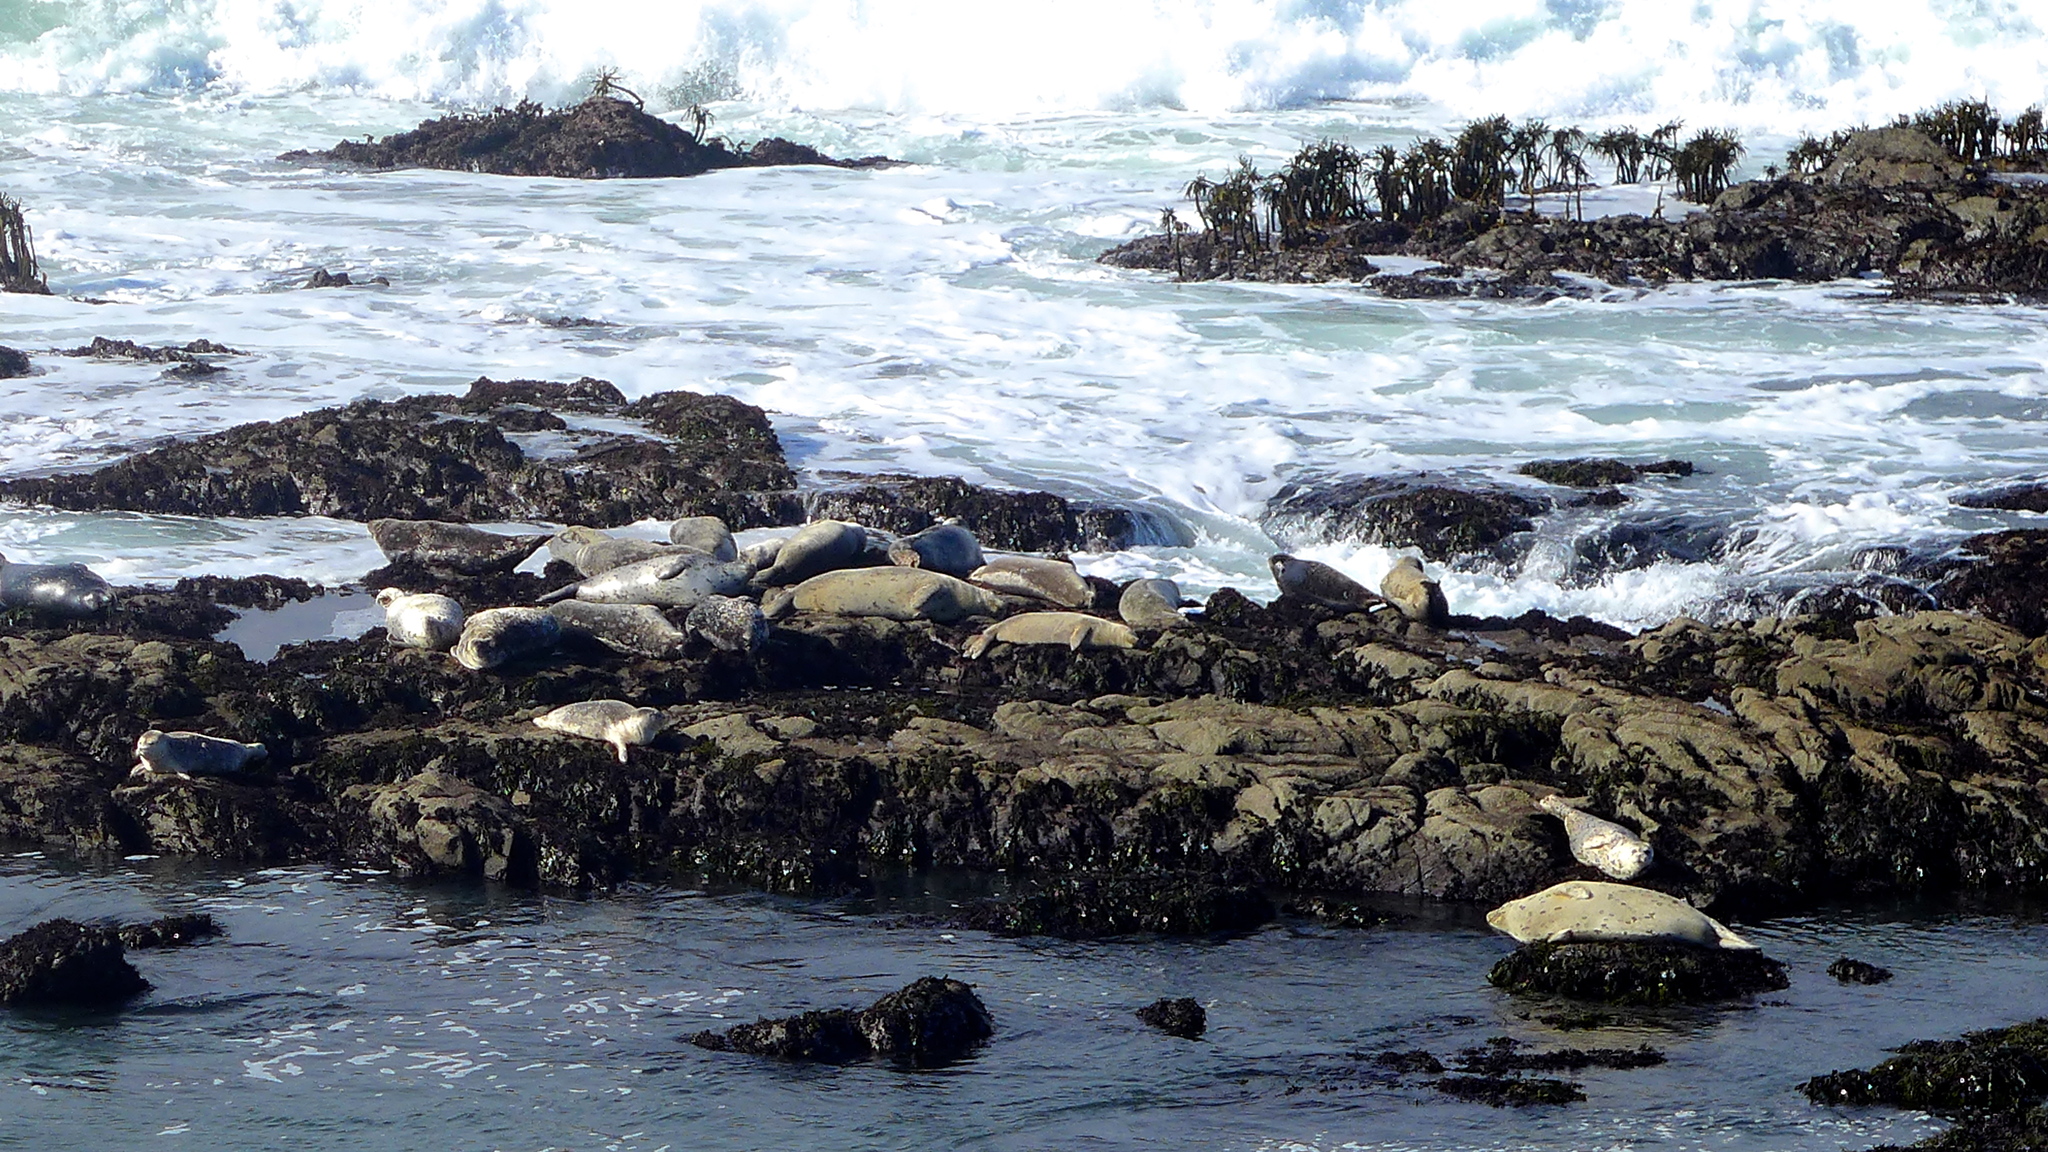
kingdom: Animalia
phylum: Chordata
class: Mammalia
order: Carnivora
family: Phocidae
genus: Phoca
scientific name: Phoca vitulina
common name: Harbor seal
